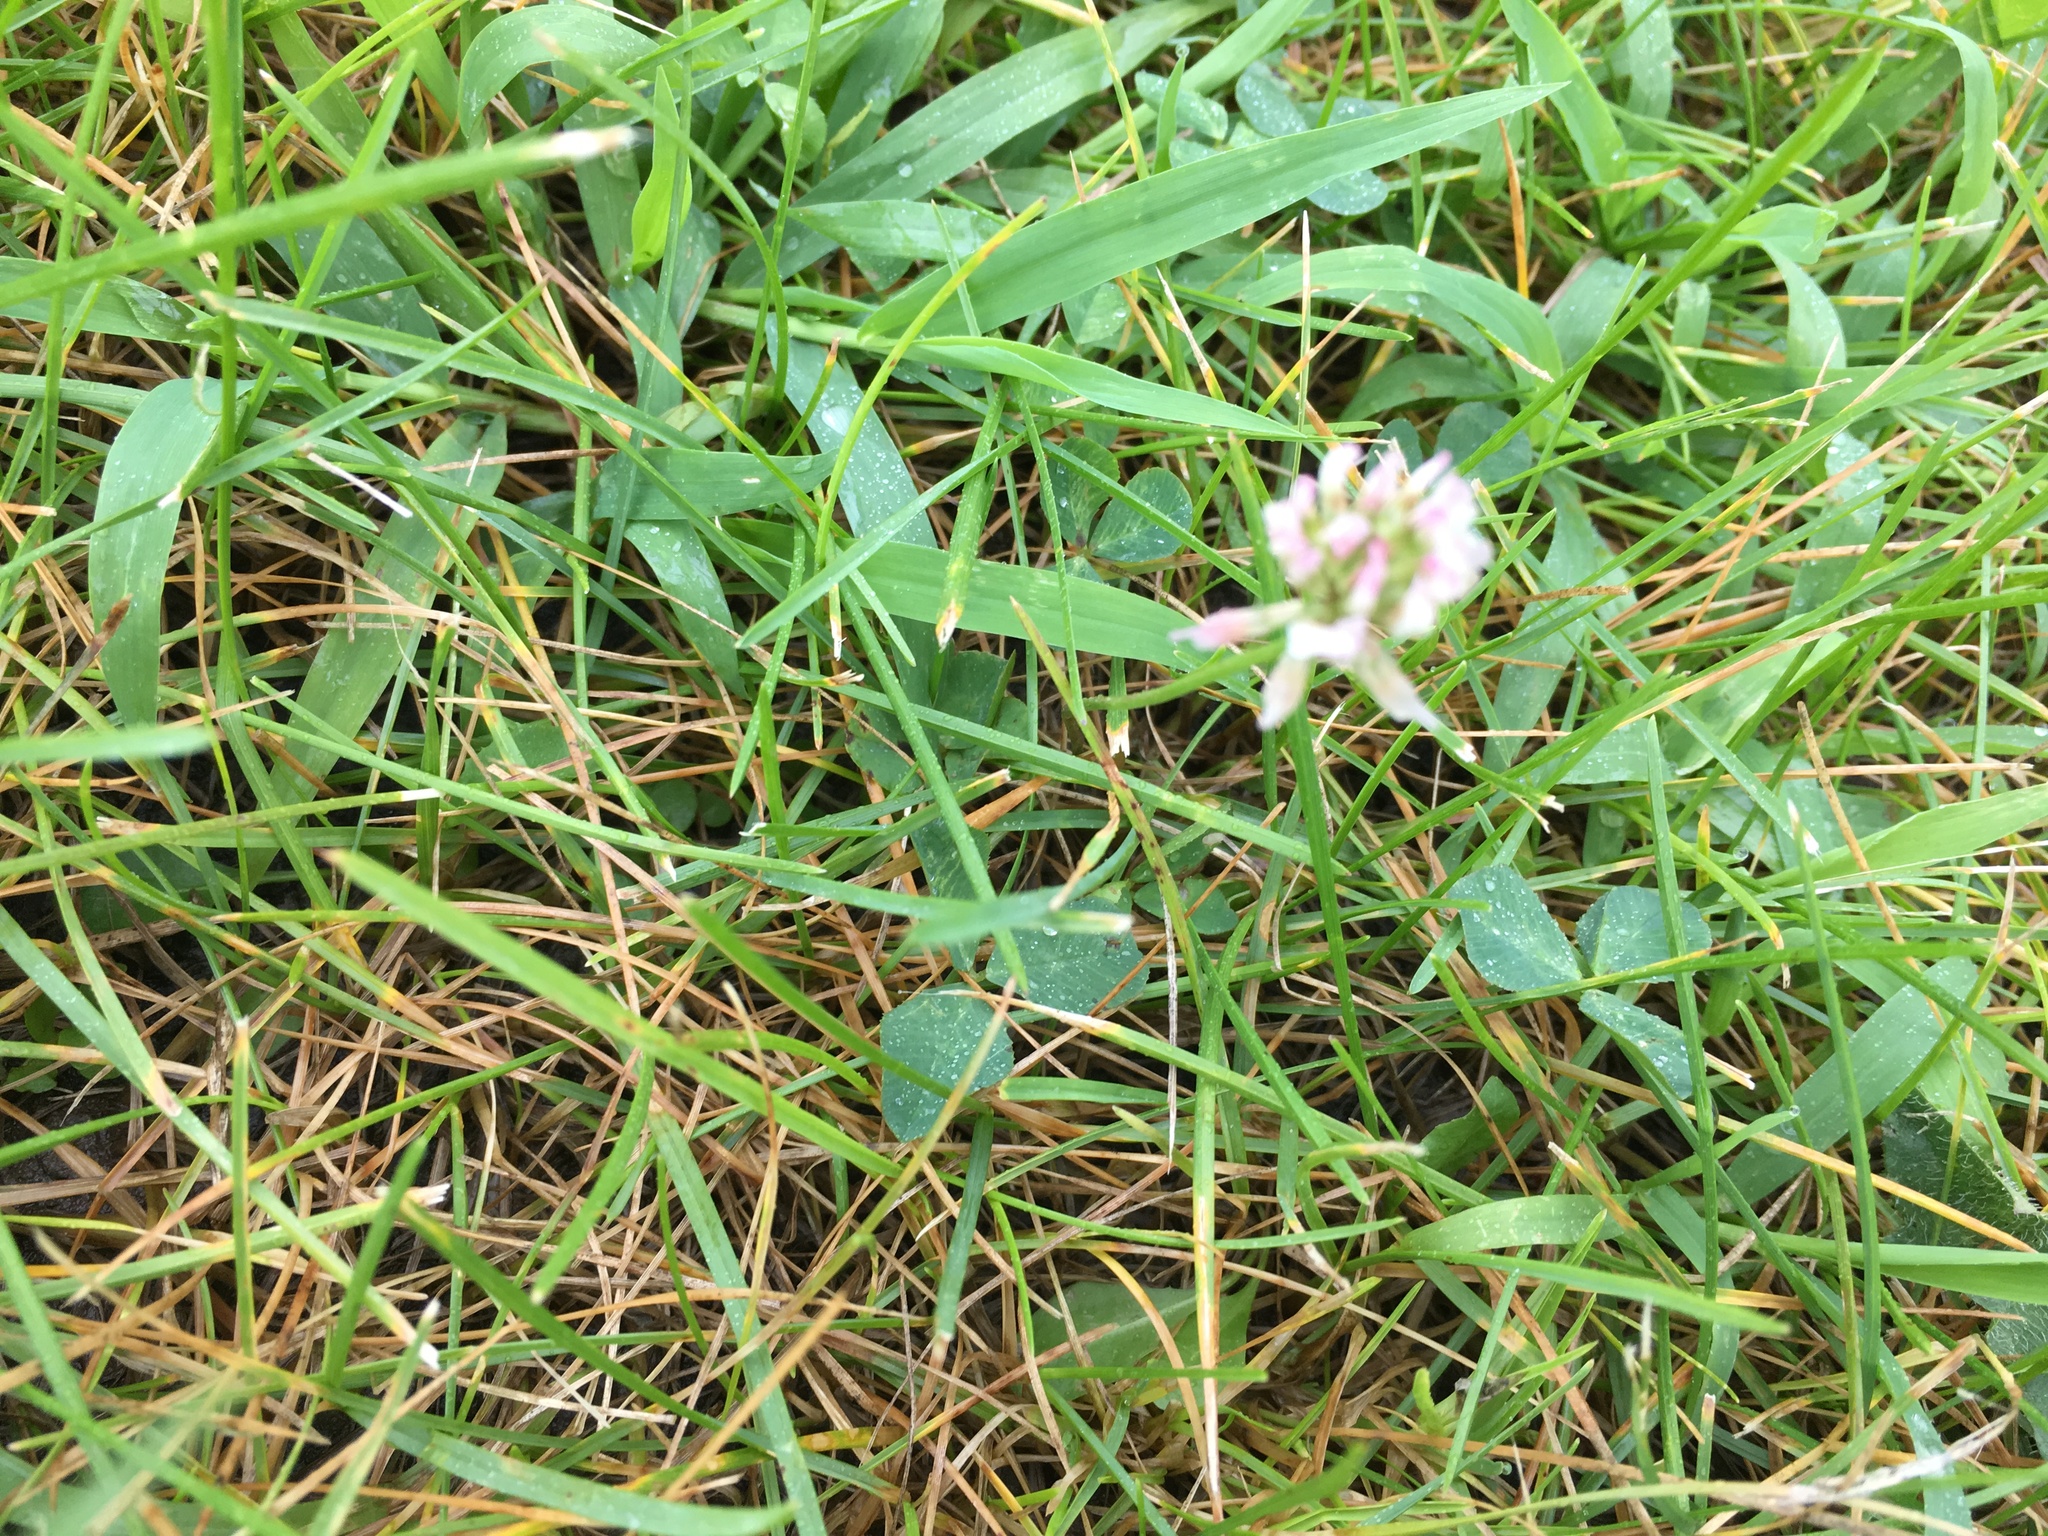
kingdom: Plantae
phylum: Tracheophyta
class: Magnoliopsida
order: Fabales
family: Fabaceae
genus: Trifolium
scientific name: Trifolium repens
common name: White clover
